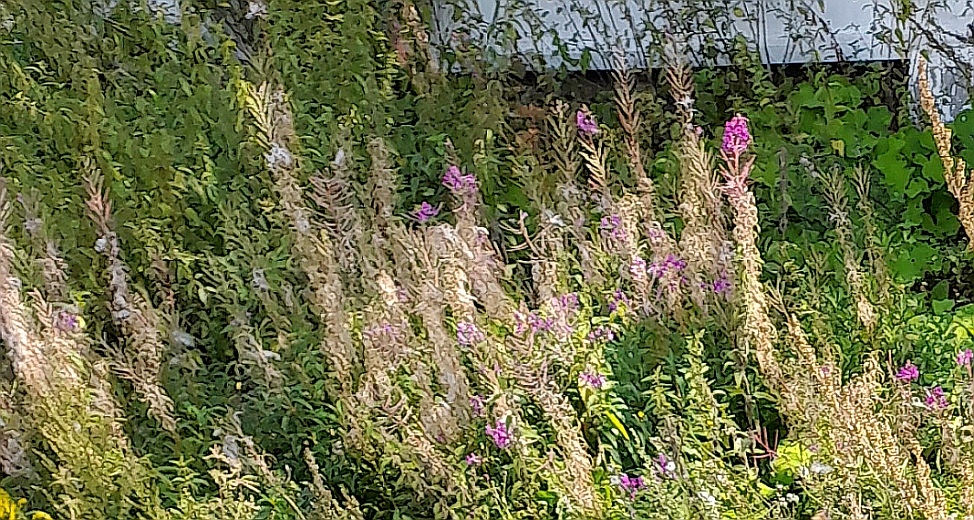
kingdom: Plantae
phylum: Tracheophyta
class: Magnoliopsida
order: Myrtales
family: Onagraceae
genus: Chamaenerion
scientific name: Chamaenerion angustifolium
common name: Fireweed
